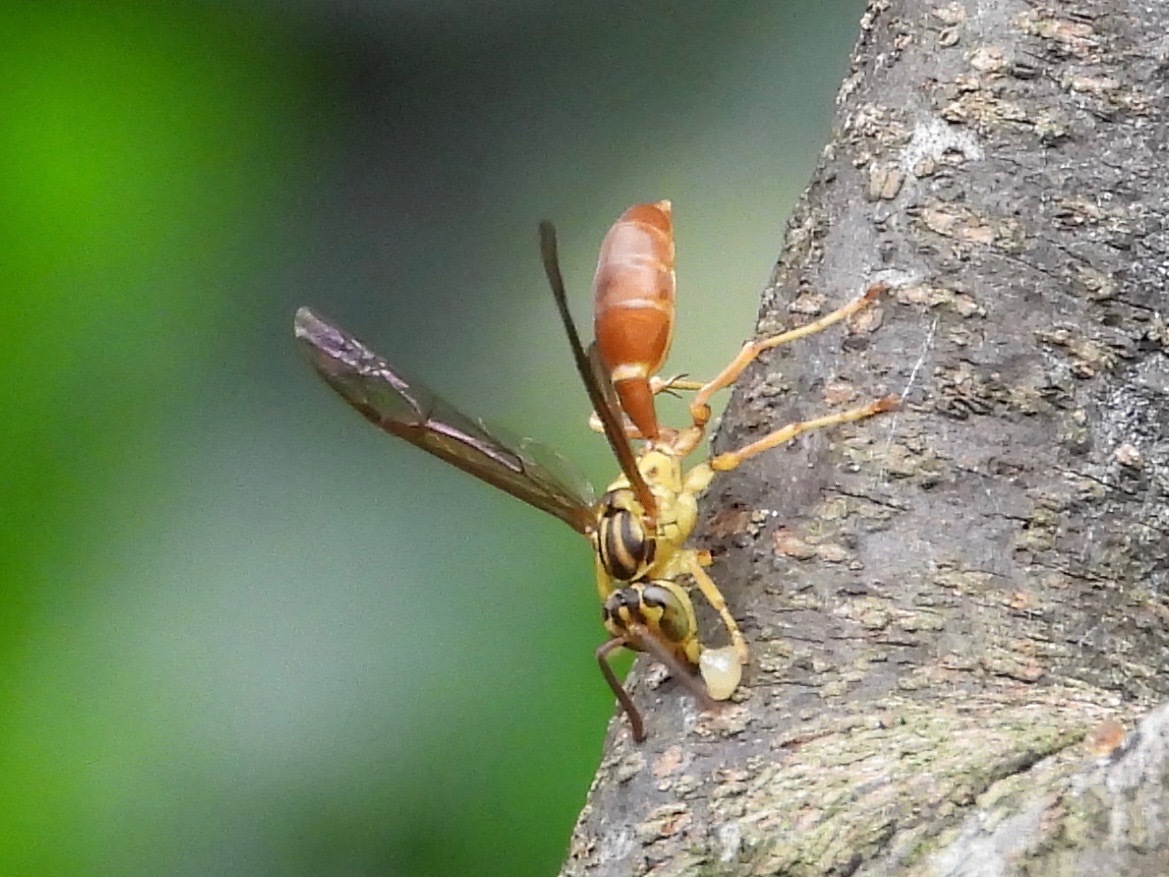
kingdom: Animalia
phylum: Arthropoda
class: Insecta
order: Hymenoptera
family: Vespidae
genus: Agelaia
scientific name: Agelaia centralis
